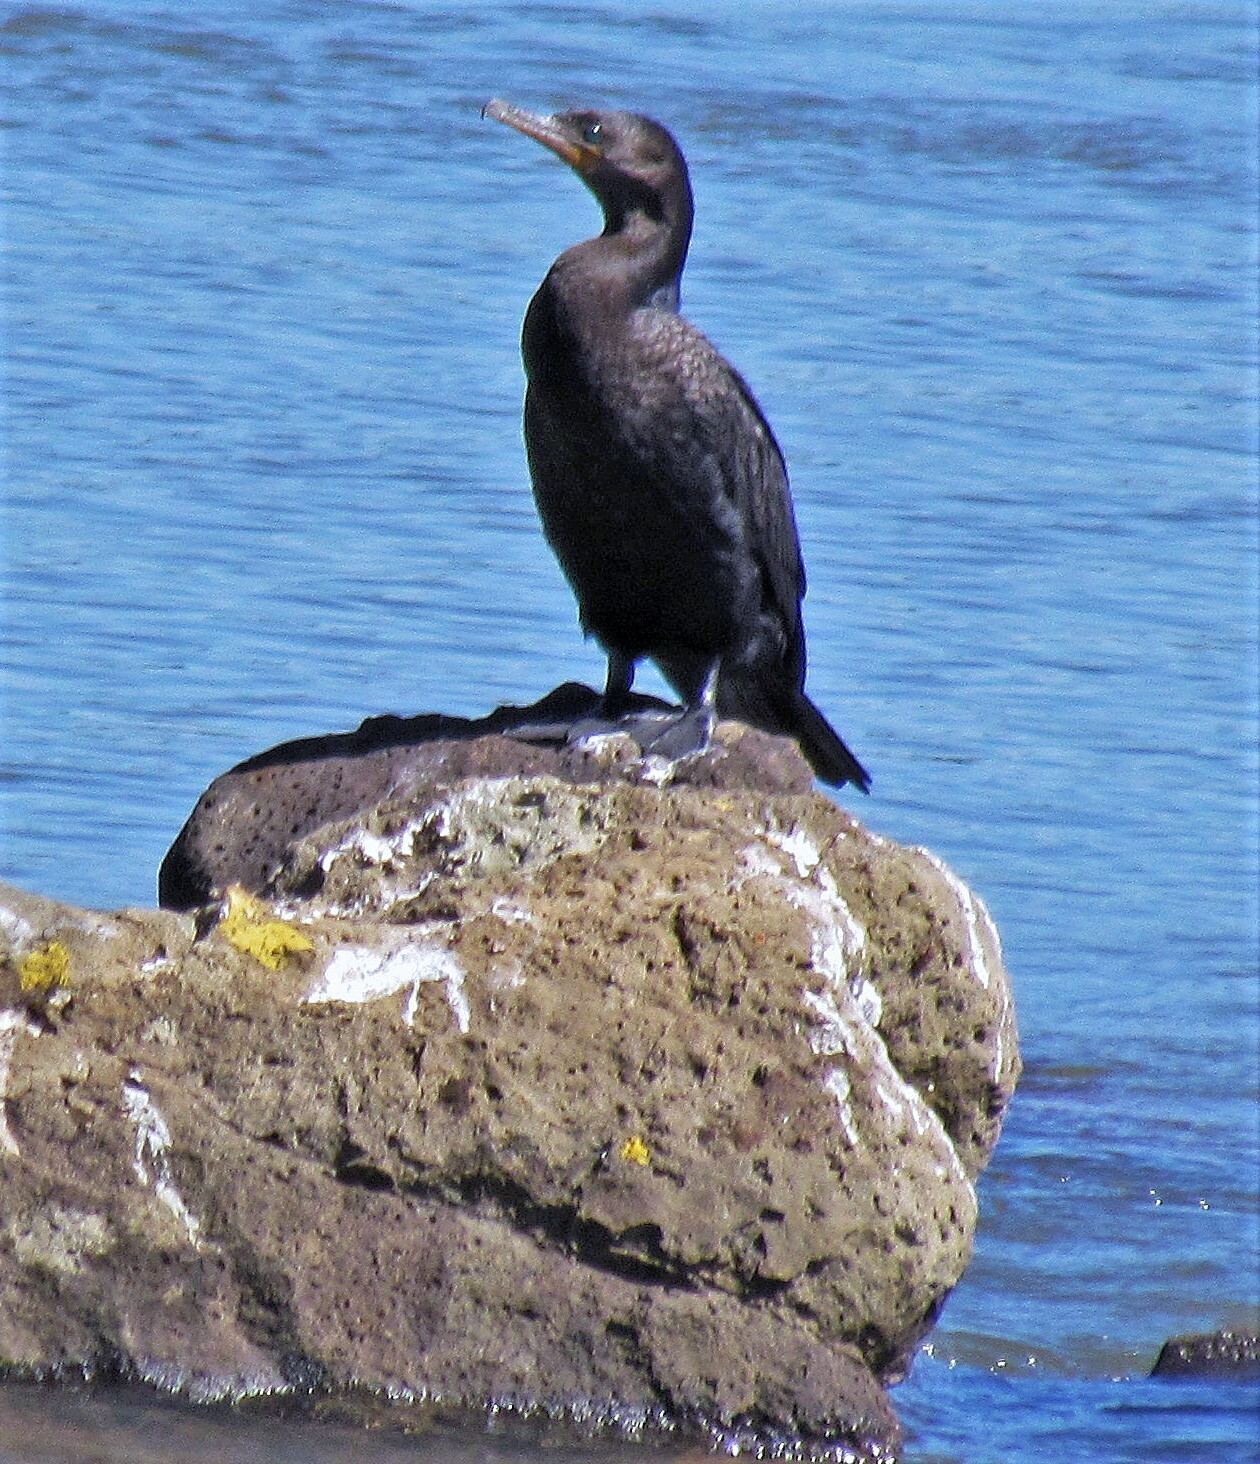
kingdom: Animalia
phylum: Chordata
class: Aves
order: Suliformes
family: Phalacrocoracidae
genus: Phalacrocorax
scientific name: Phalacrocorax brasilianus
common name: Neotropic cormorant
